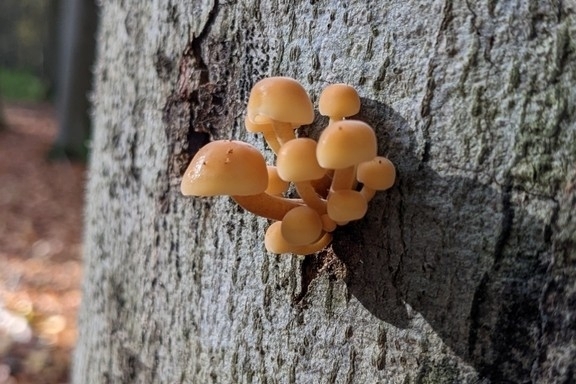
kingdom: Fungi
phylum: Basidiomycota
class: Agaricomycetes
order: Agaricales
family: Physalacriaceae
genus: Flammulina
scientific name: Flammulina
